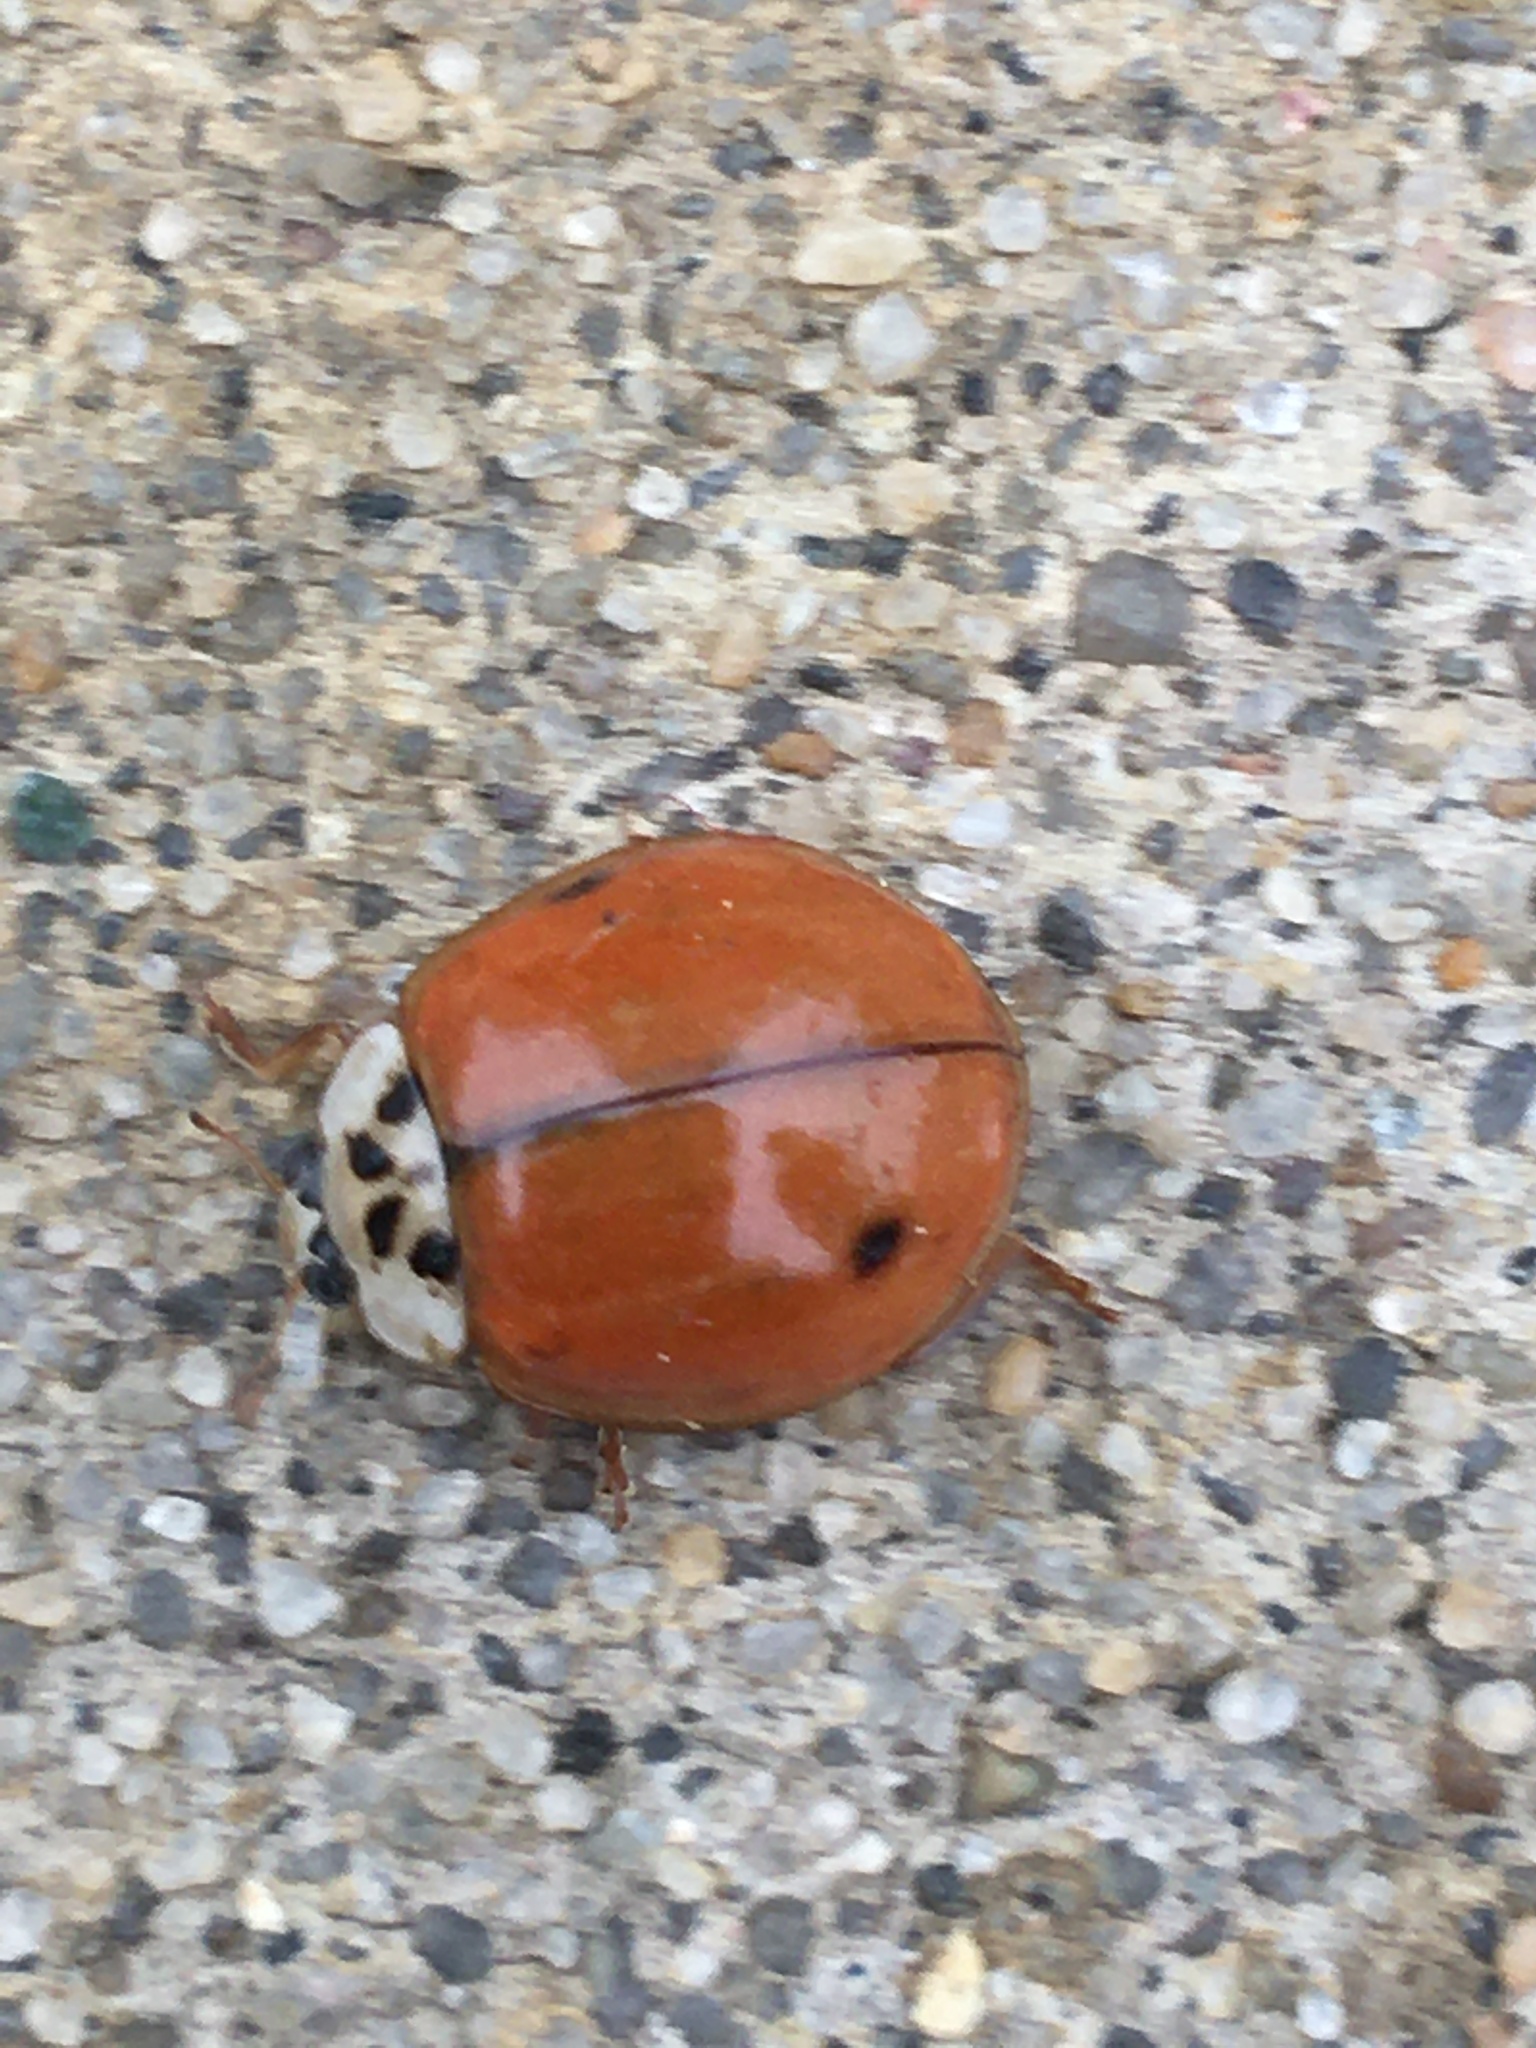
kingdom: Animalia
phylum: Arthropoda
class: Insecta
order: Coleoptera
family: Coccinellidae
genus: Harmonia
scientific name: Harmonia axyridis
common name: Harlequin ladybird
